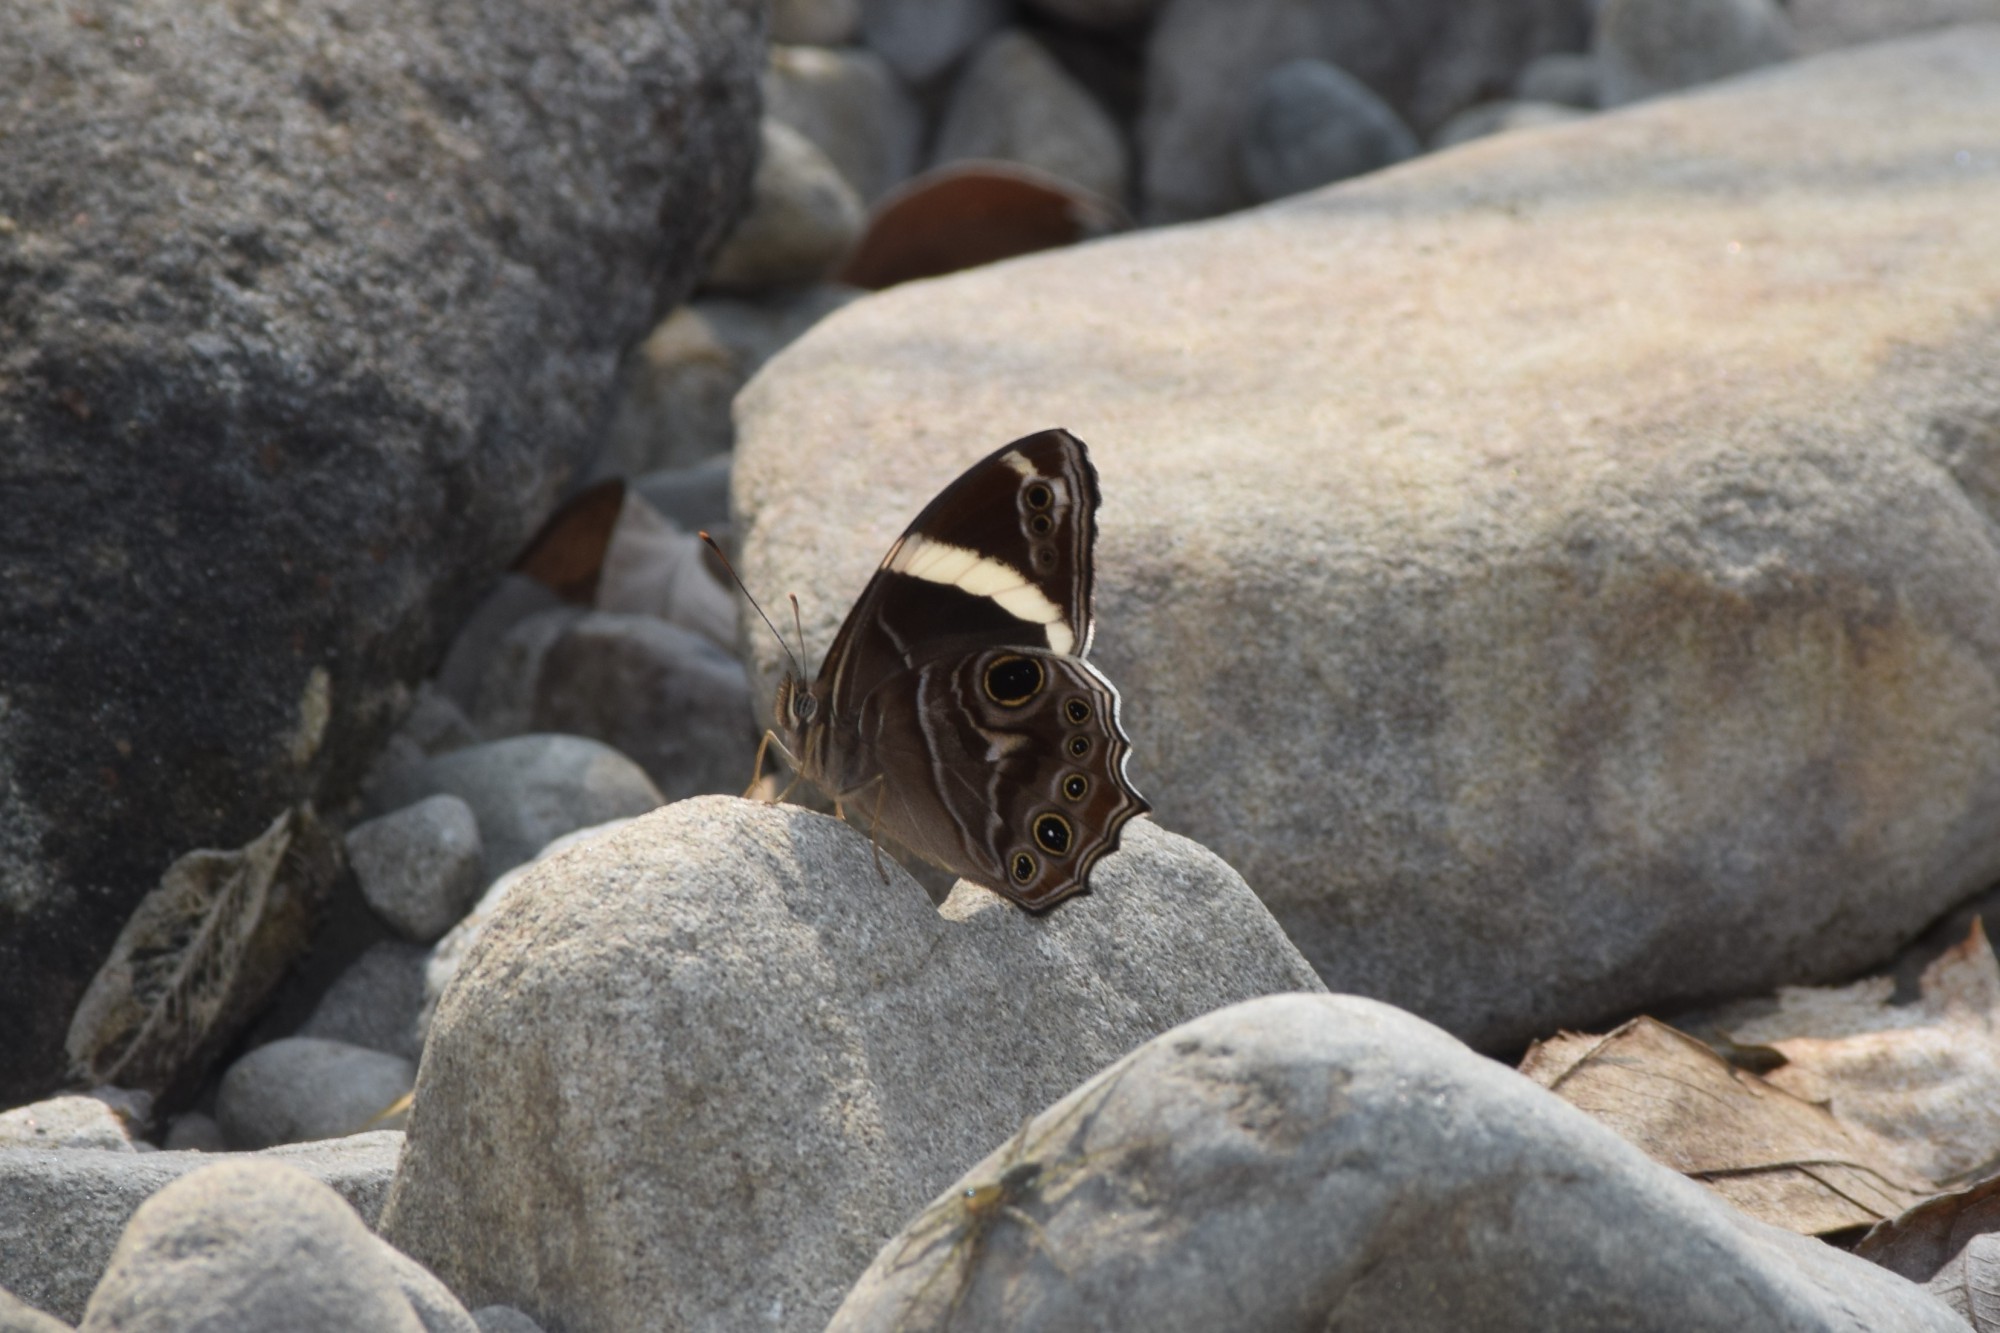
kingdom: Animalia
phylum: Arthropoda
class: Insecta
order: Lepidoptera
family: Nymphalidae
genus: Lethe
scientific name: Lethe confusa
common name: Banded treebrown
